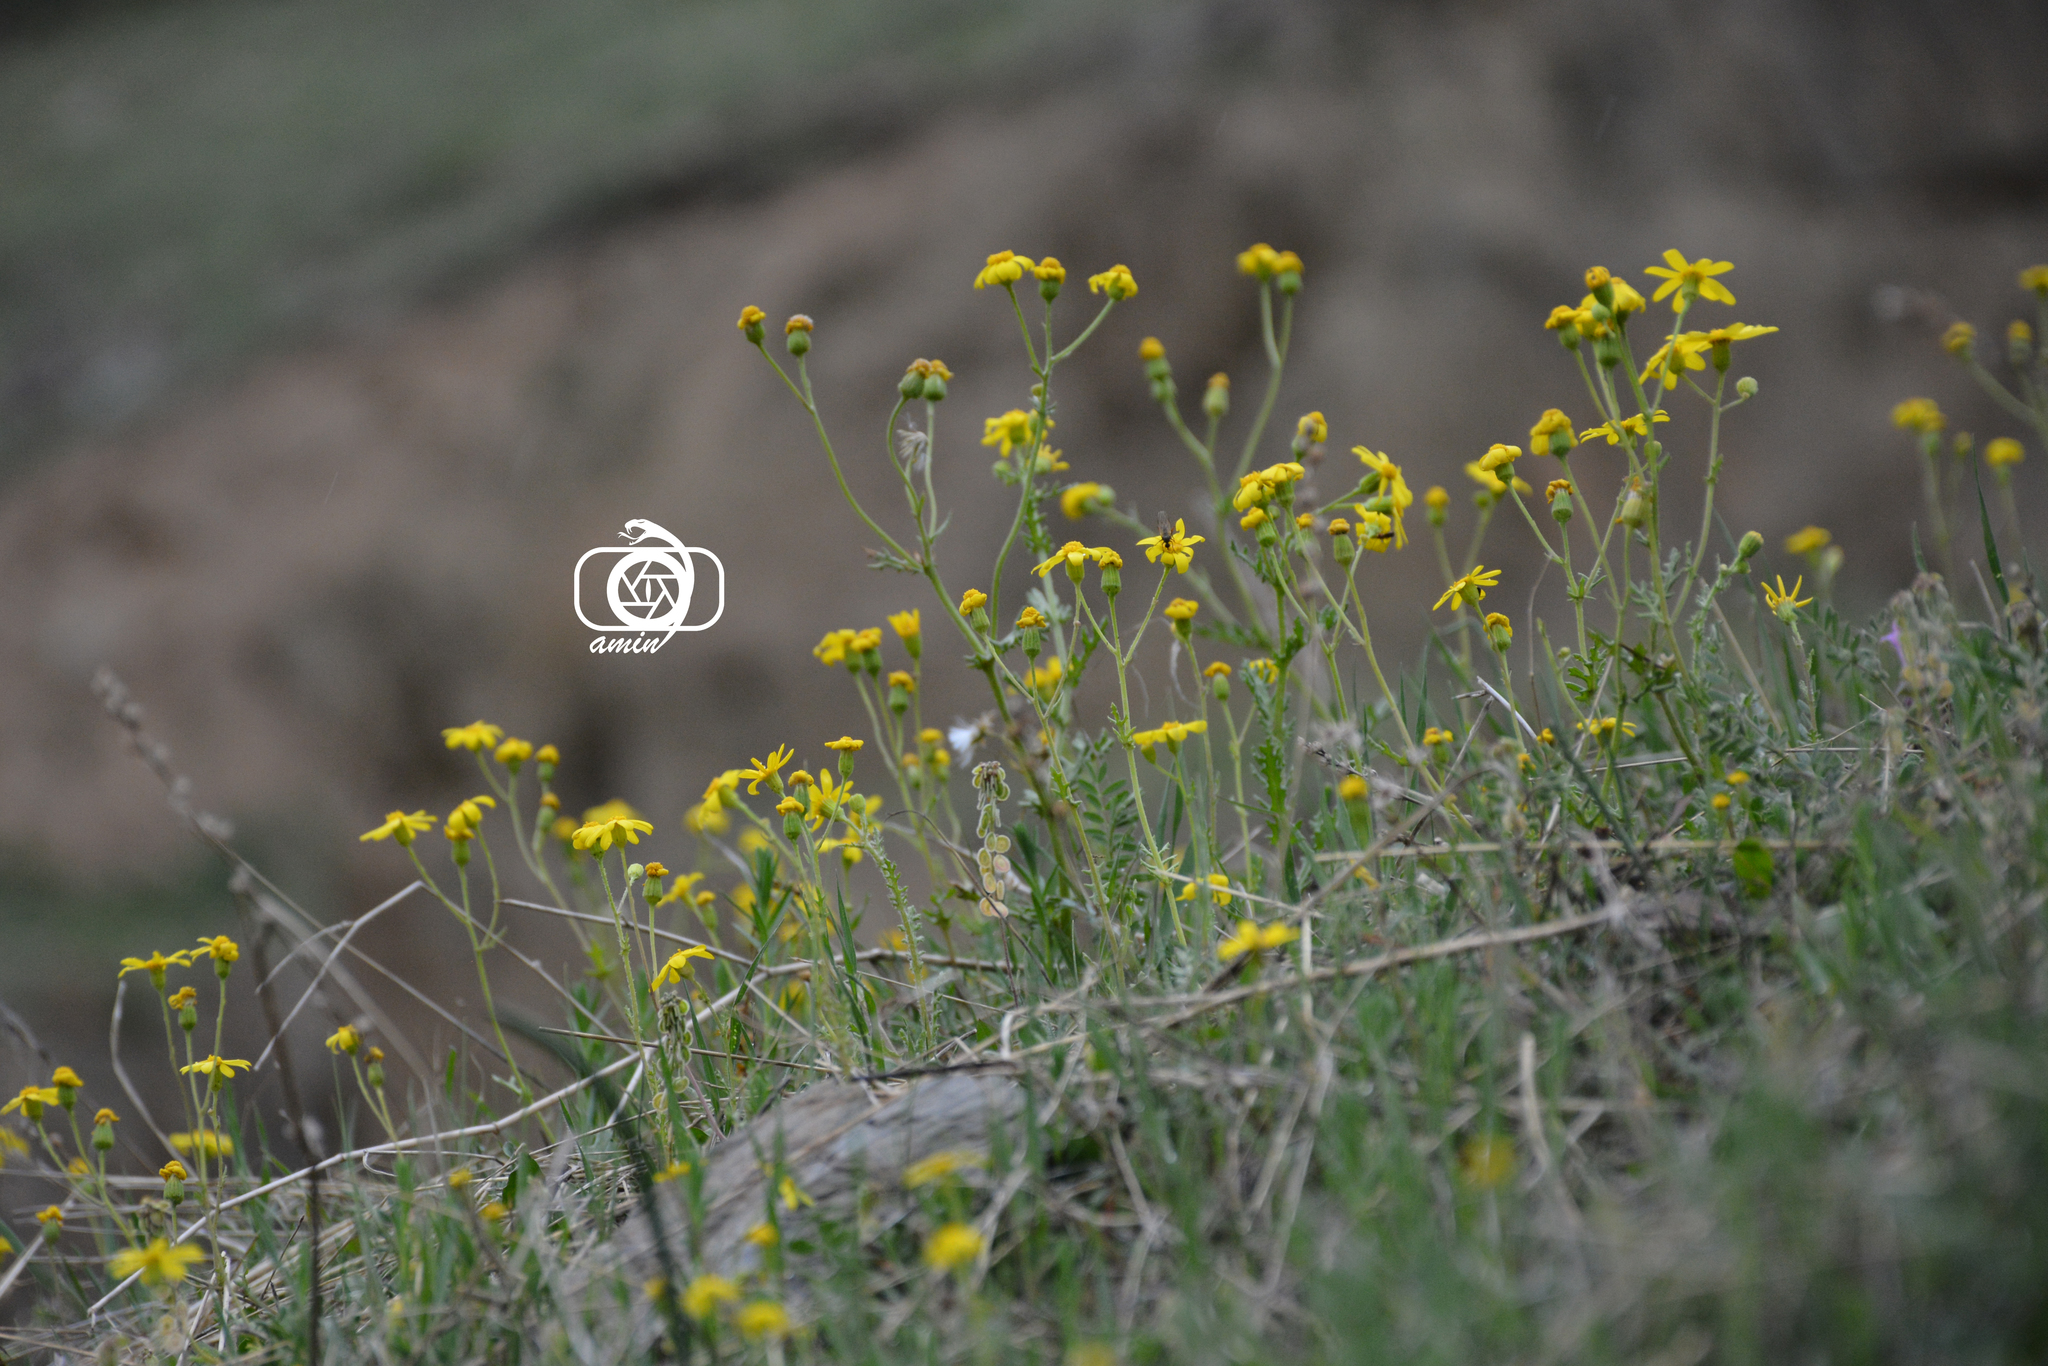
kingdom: Plantae
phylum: Tracheophyta
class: Magnoliopsida
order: Asterales
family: Asteraceae
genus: Senecio
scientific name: Senecio vernalis
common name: Eastern groundsel
